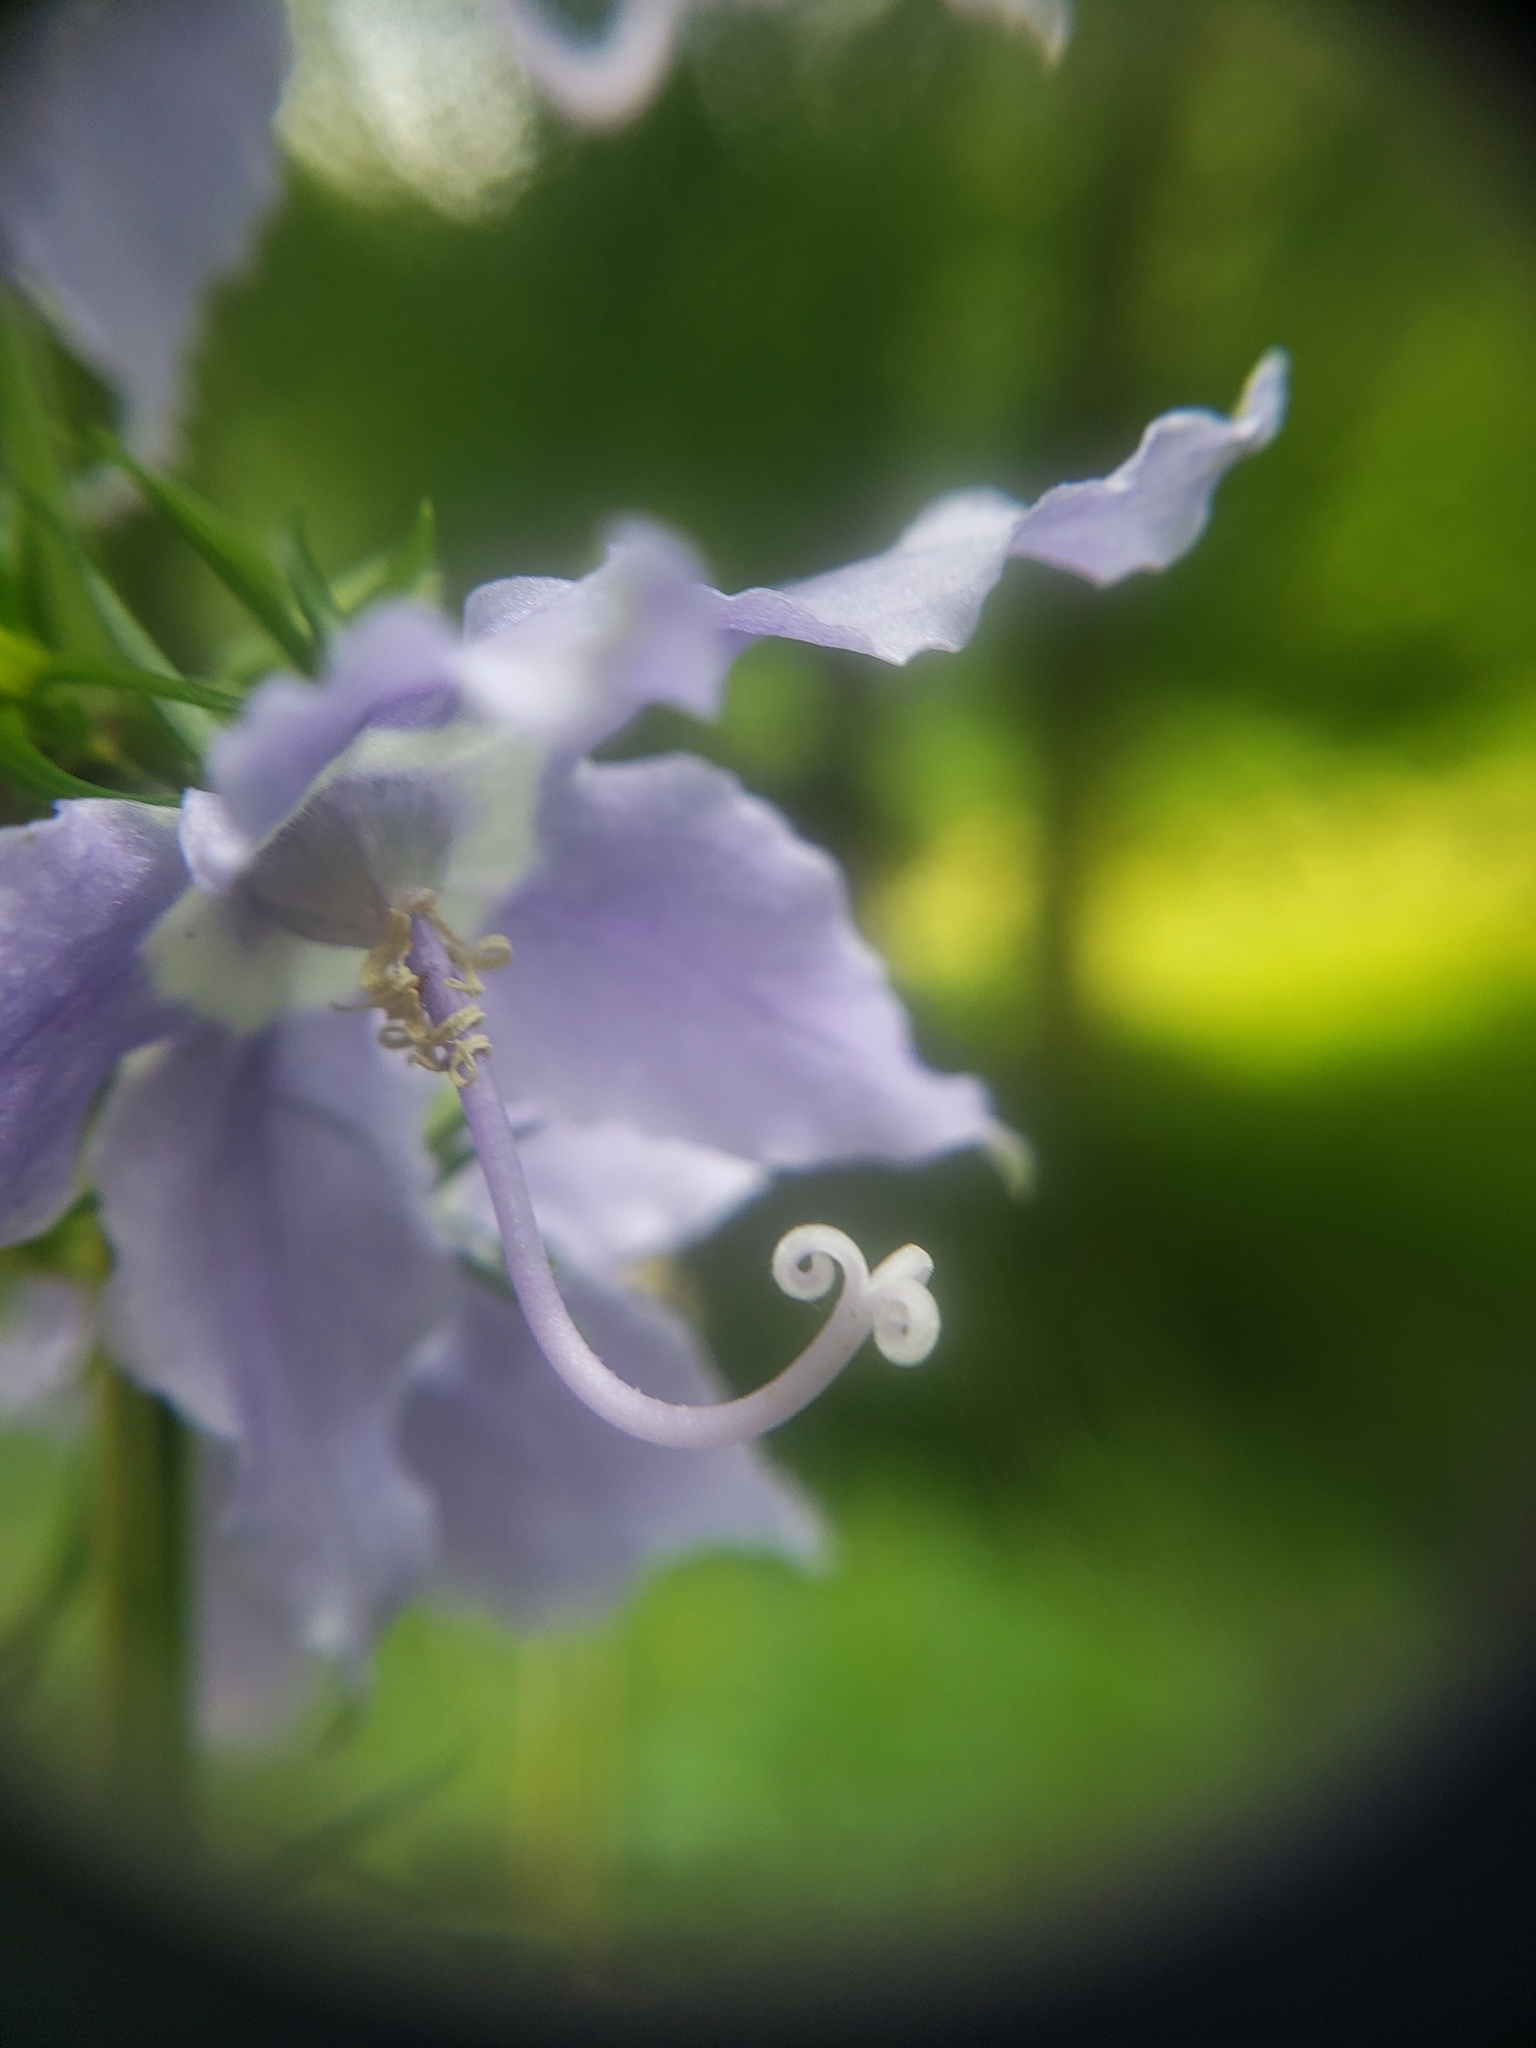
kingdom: Plantae
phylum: Tracheophyta
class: Magnoliopsida
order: Asterales
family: Campanulaceae
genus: Campanulastrum
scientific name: Campanulastrum americanum
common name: American bellflower
